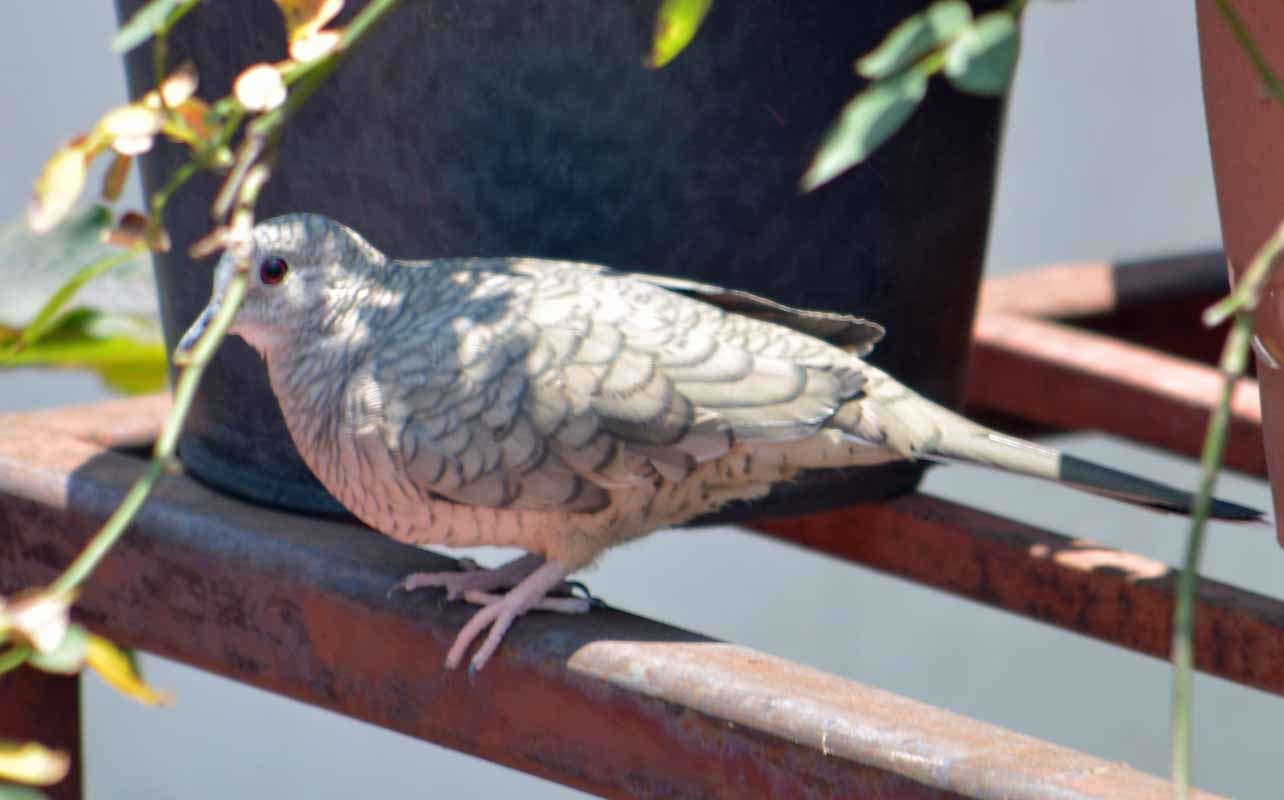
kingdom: Animalia
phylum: Chordata
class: Aves
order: Columbiformes
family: Columbidae
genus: Columbina
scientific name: Columbina inca
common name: Inca dove
